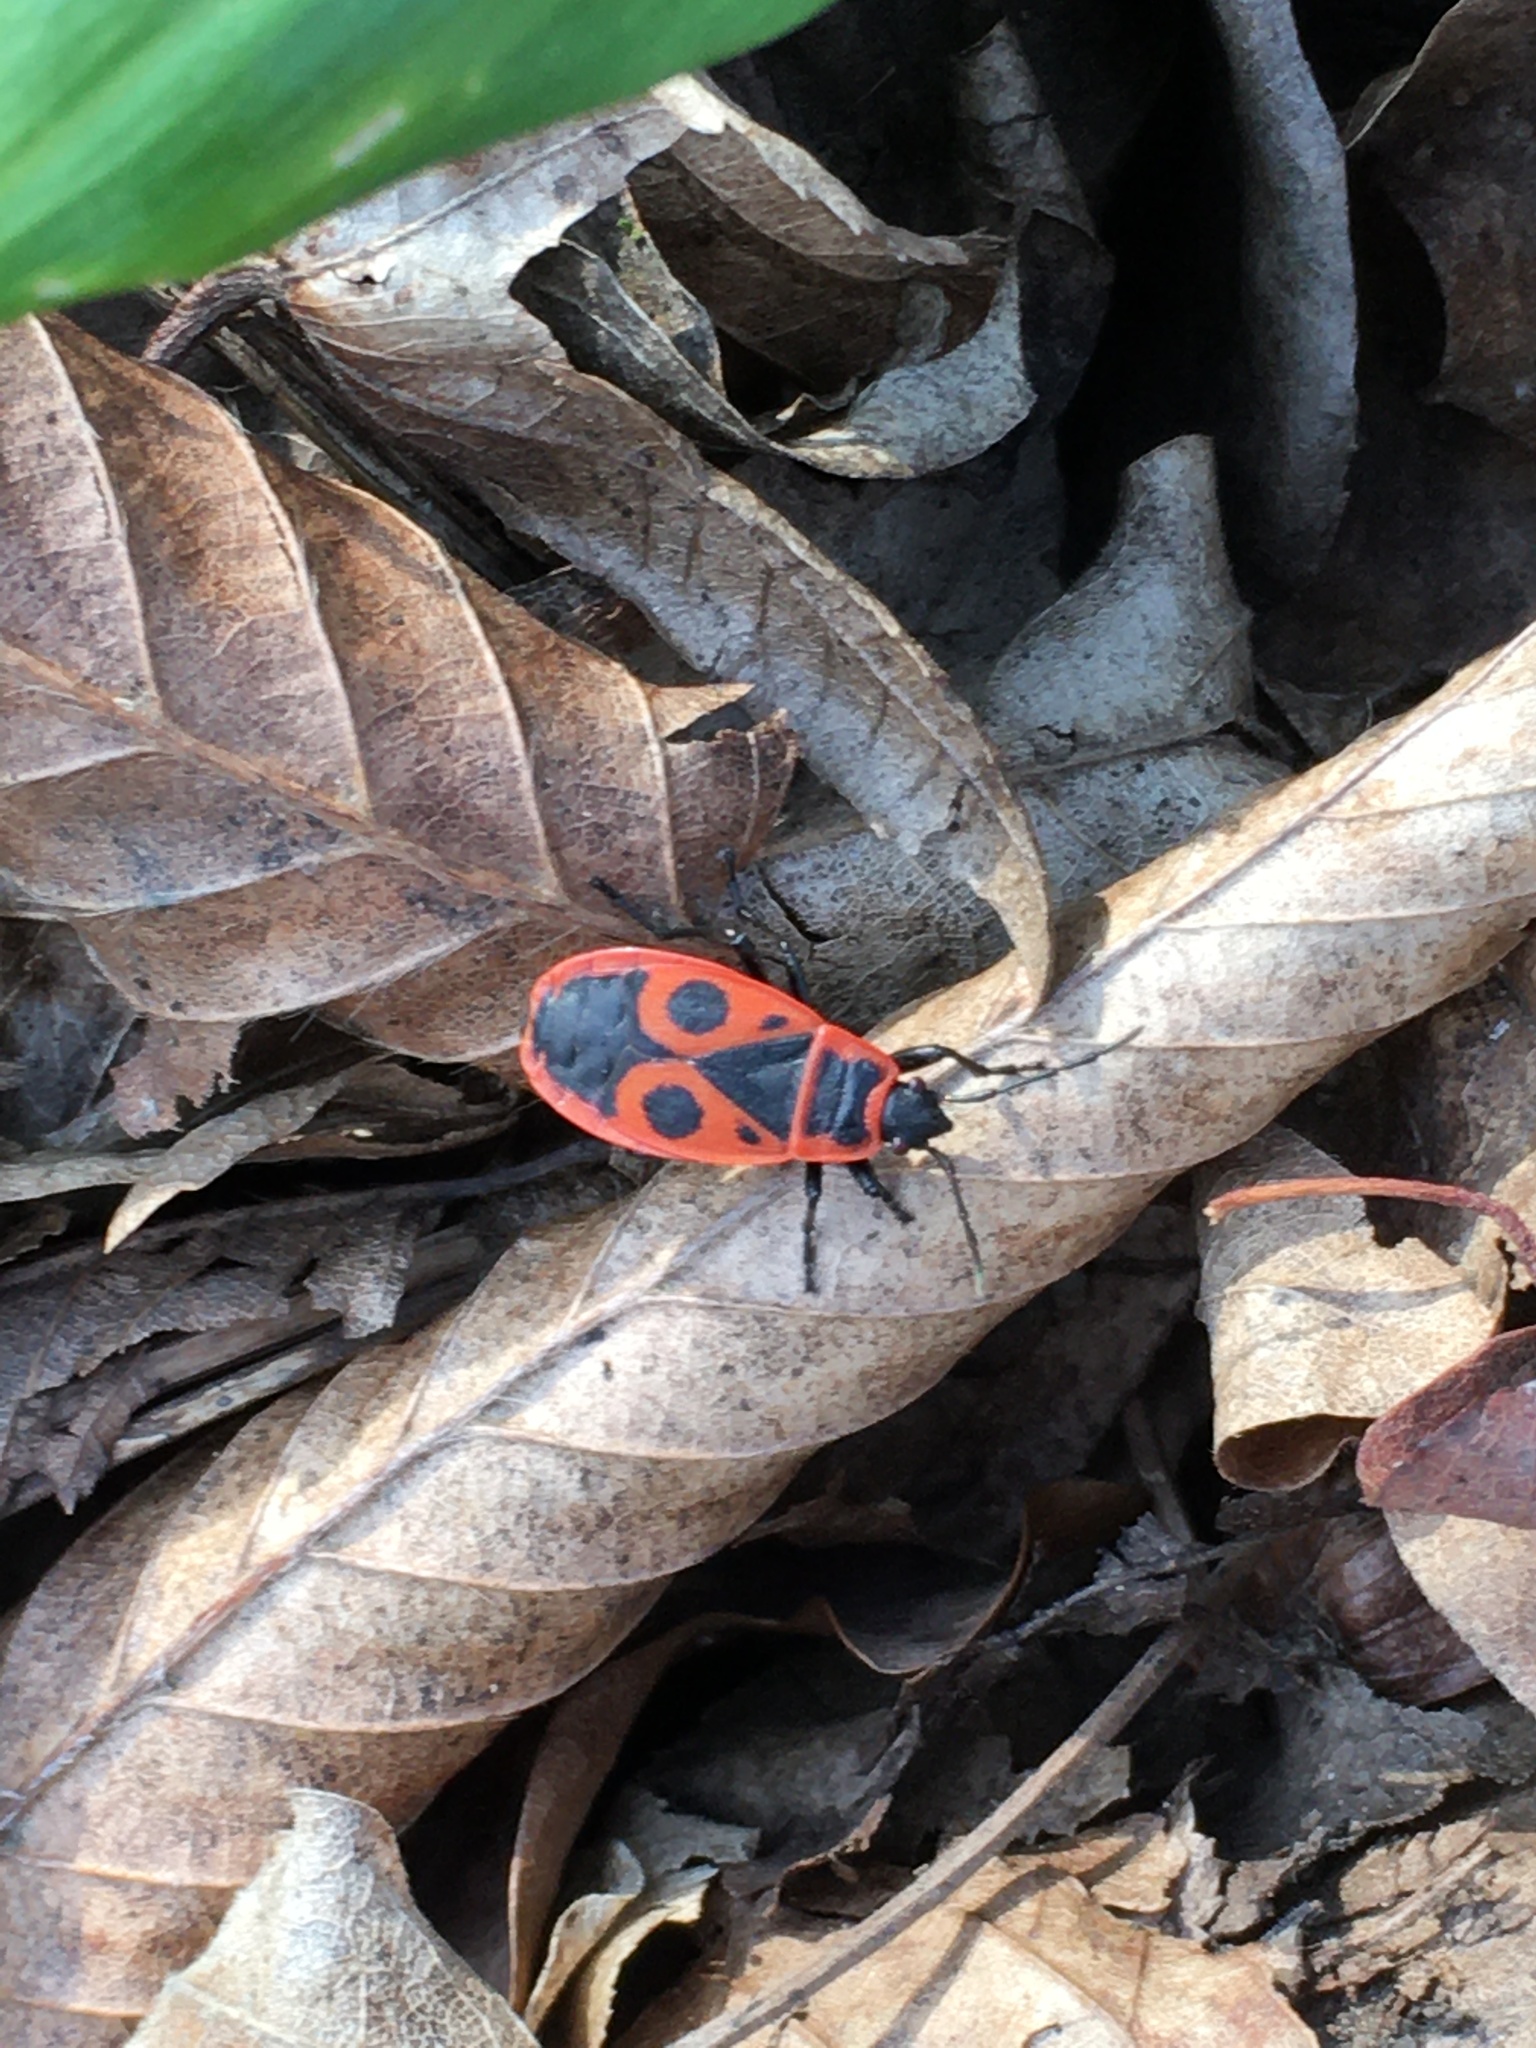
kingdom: Animalia
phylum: Arthropoda
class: Insecta
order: Hemiptera
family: Pyrrhocoridae
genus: Pyrrhocoris
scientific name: Pyrrhocoris apterus
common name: Firebug
